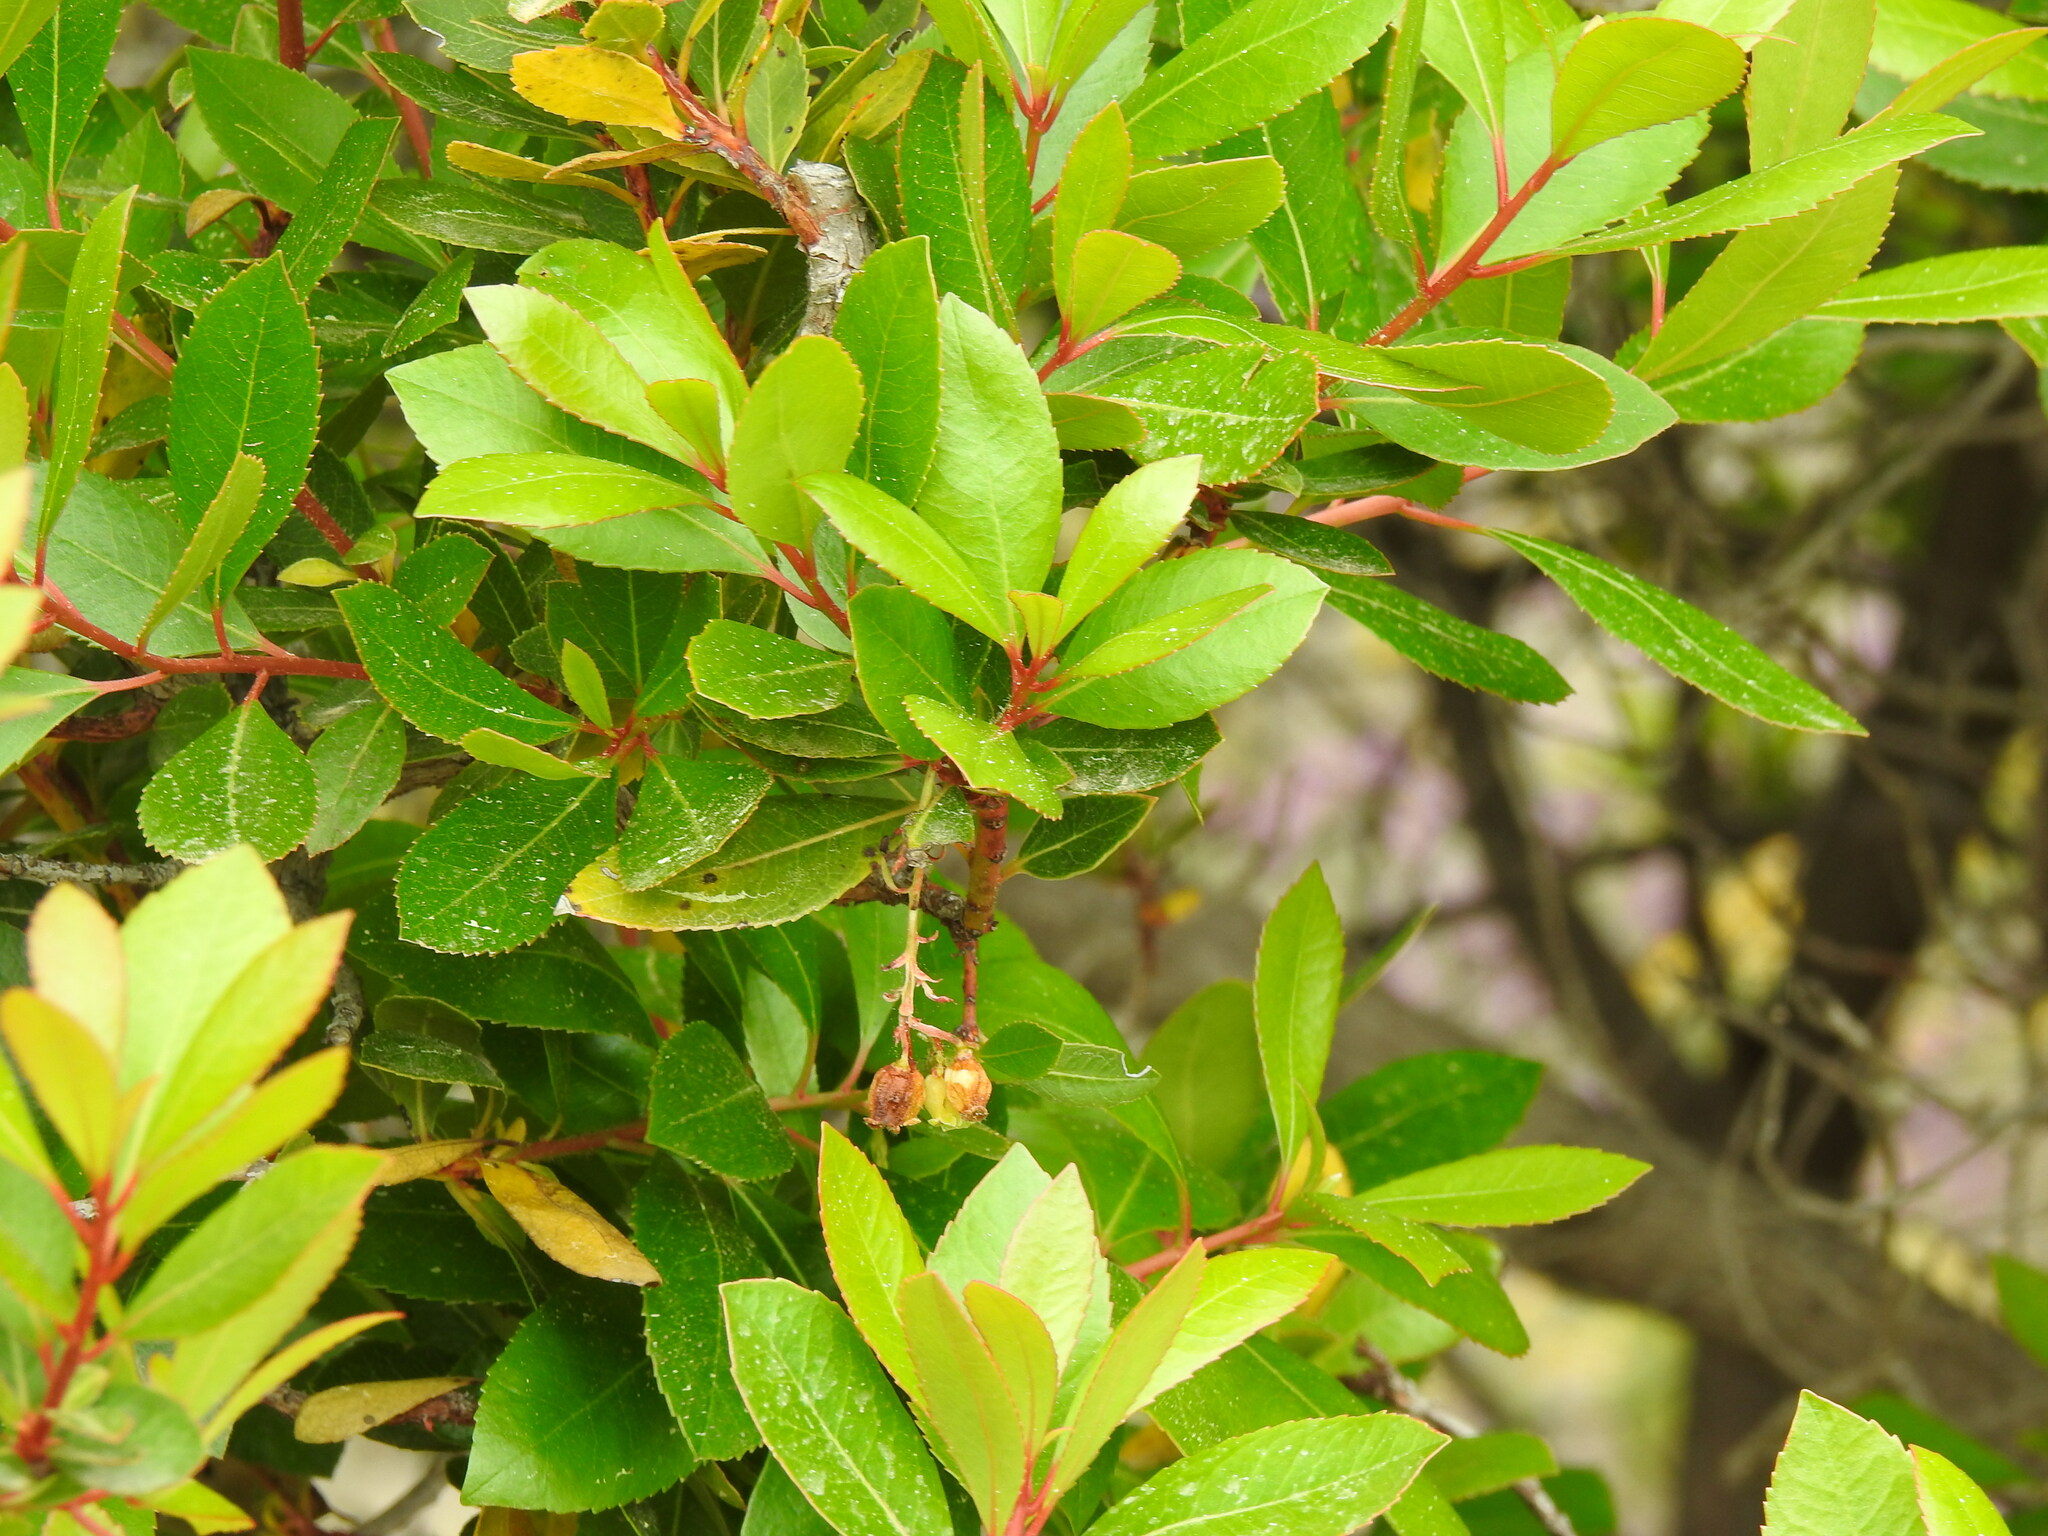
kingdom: Plantae
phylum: Tracheophyta
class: Magnoliopsida
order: Ericales
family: Ericaceae
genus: Arbutus
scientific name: Arbutus unedo
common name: Strawberry-tree
